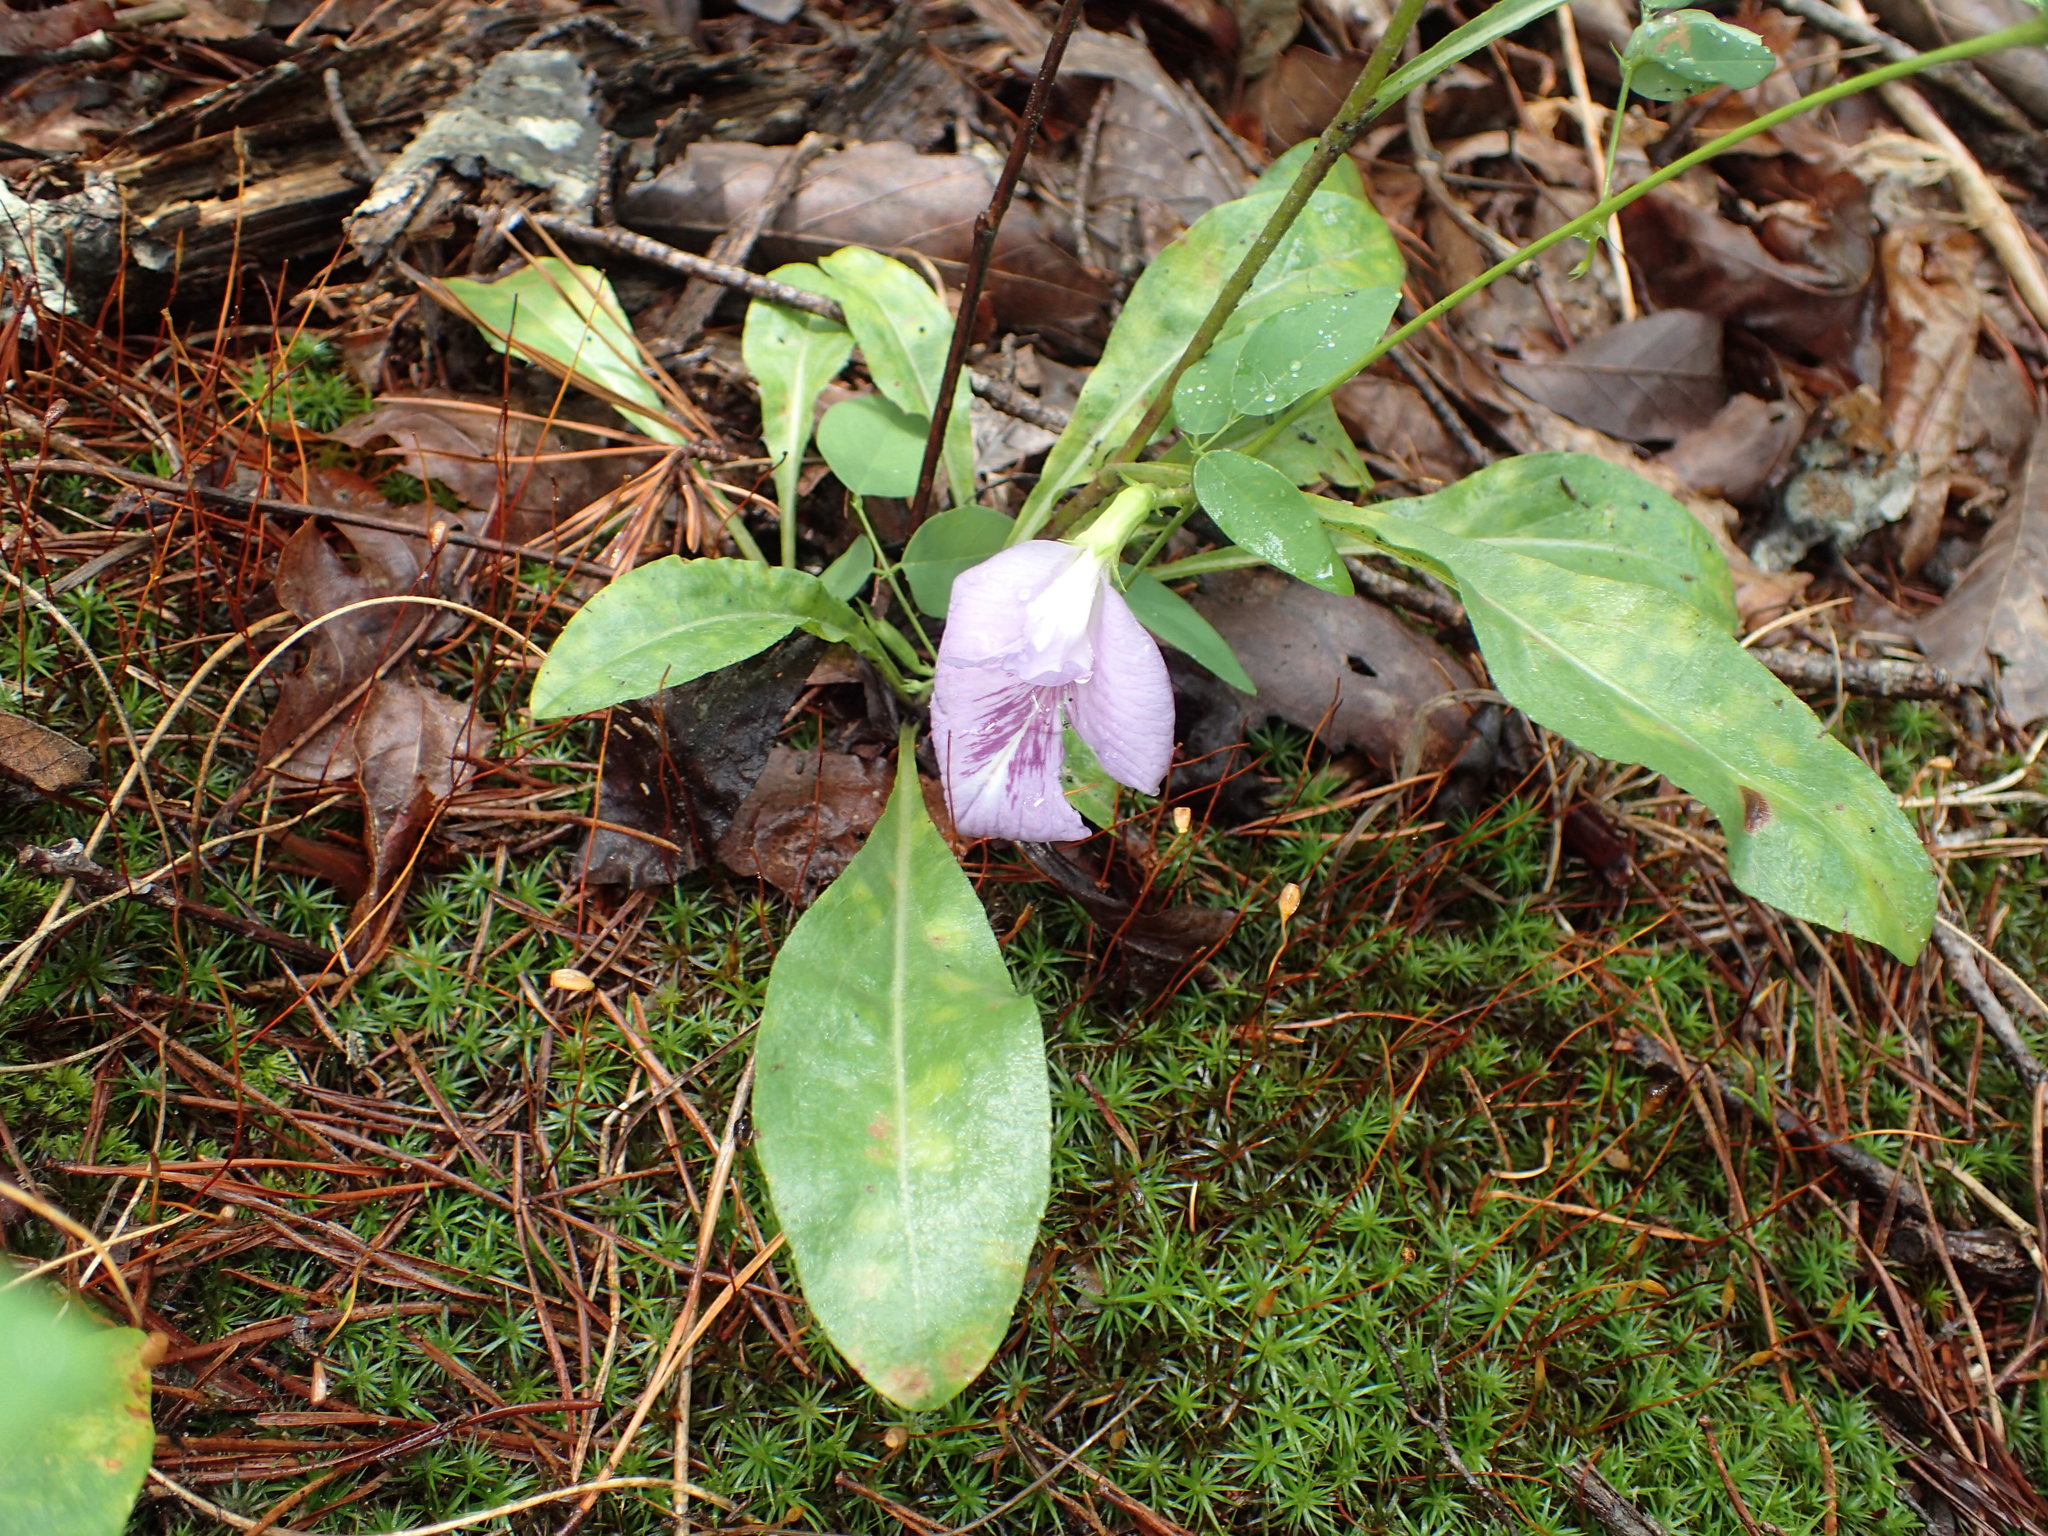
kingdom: Plantae
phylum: Tracheophyta
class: Magnoliopsida
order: Fabales
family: Fabaceae
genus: Clitoria
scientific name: Clitoria mariana
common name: Butterfly-pea
